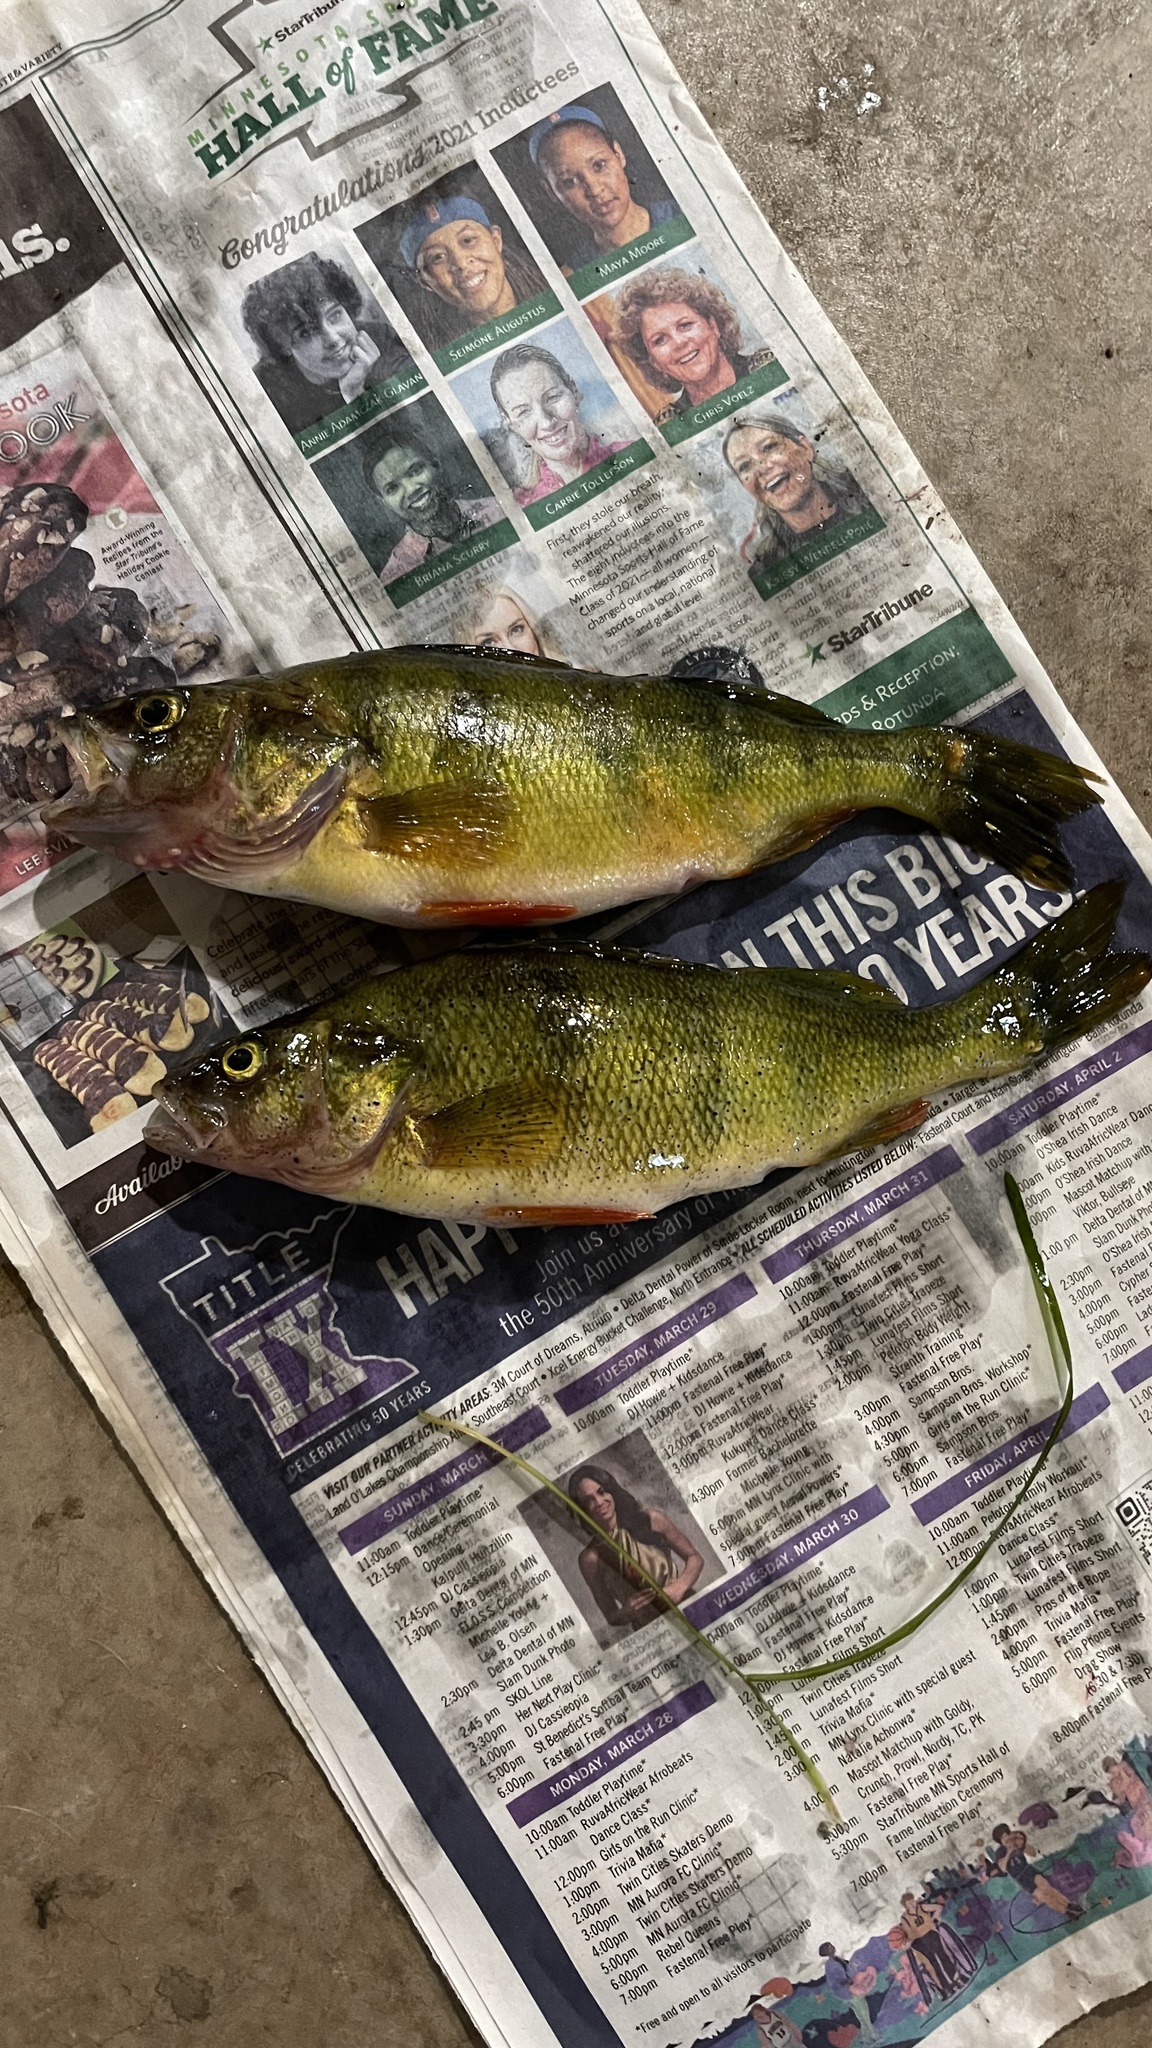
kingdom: Animalia
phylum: Chordata
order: Perciformes
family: Percidae
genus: Perca
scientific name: Perca flavescens
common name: Yellow perch
